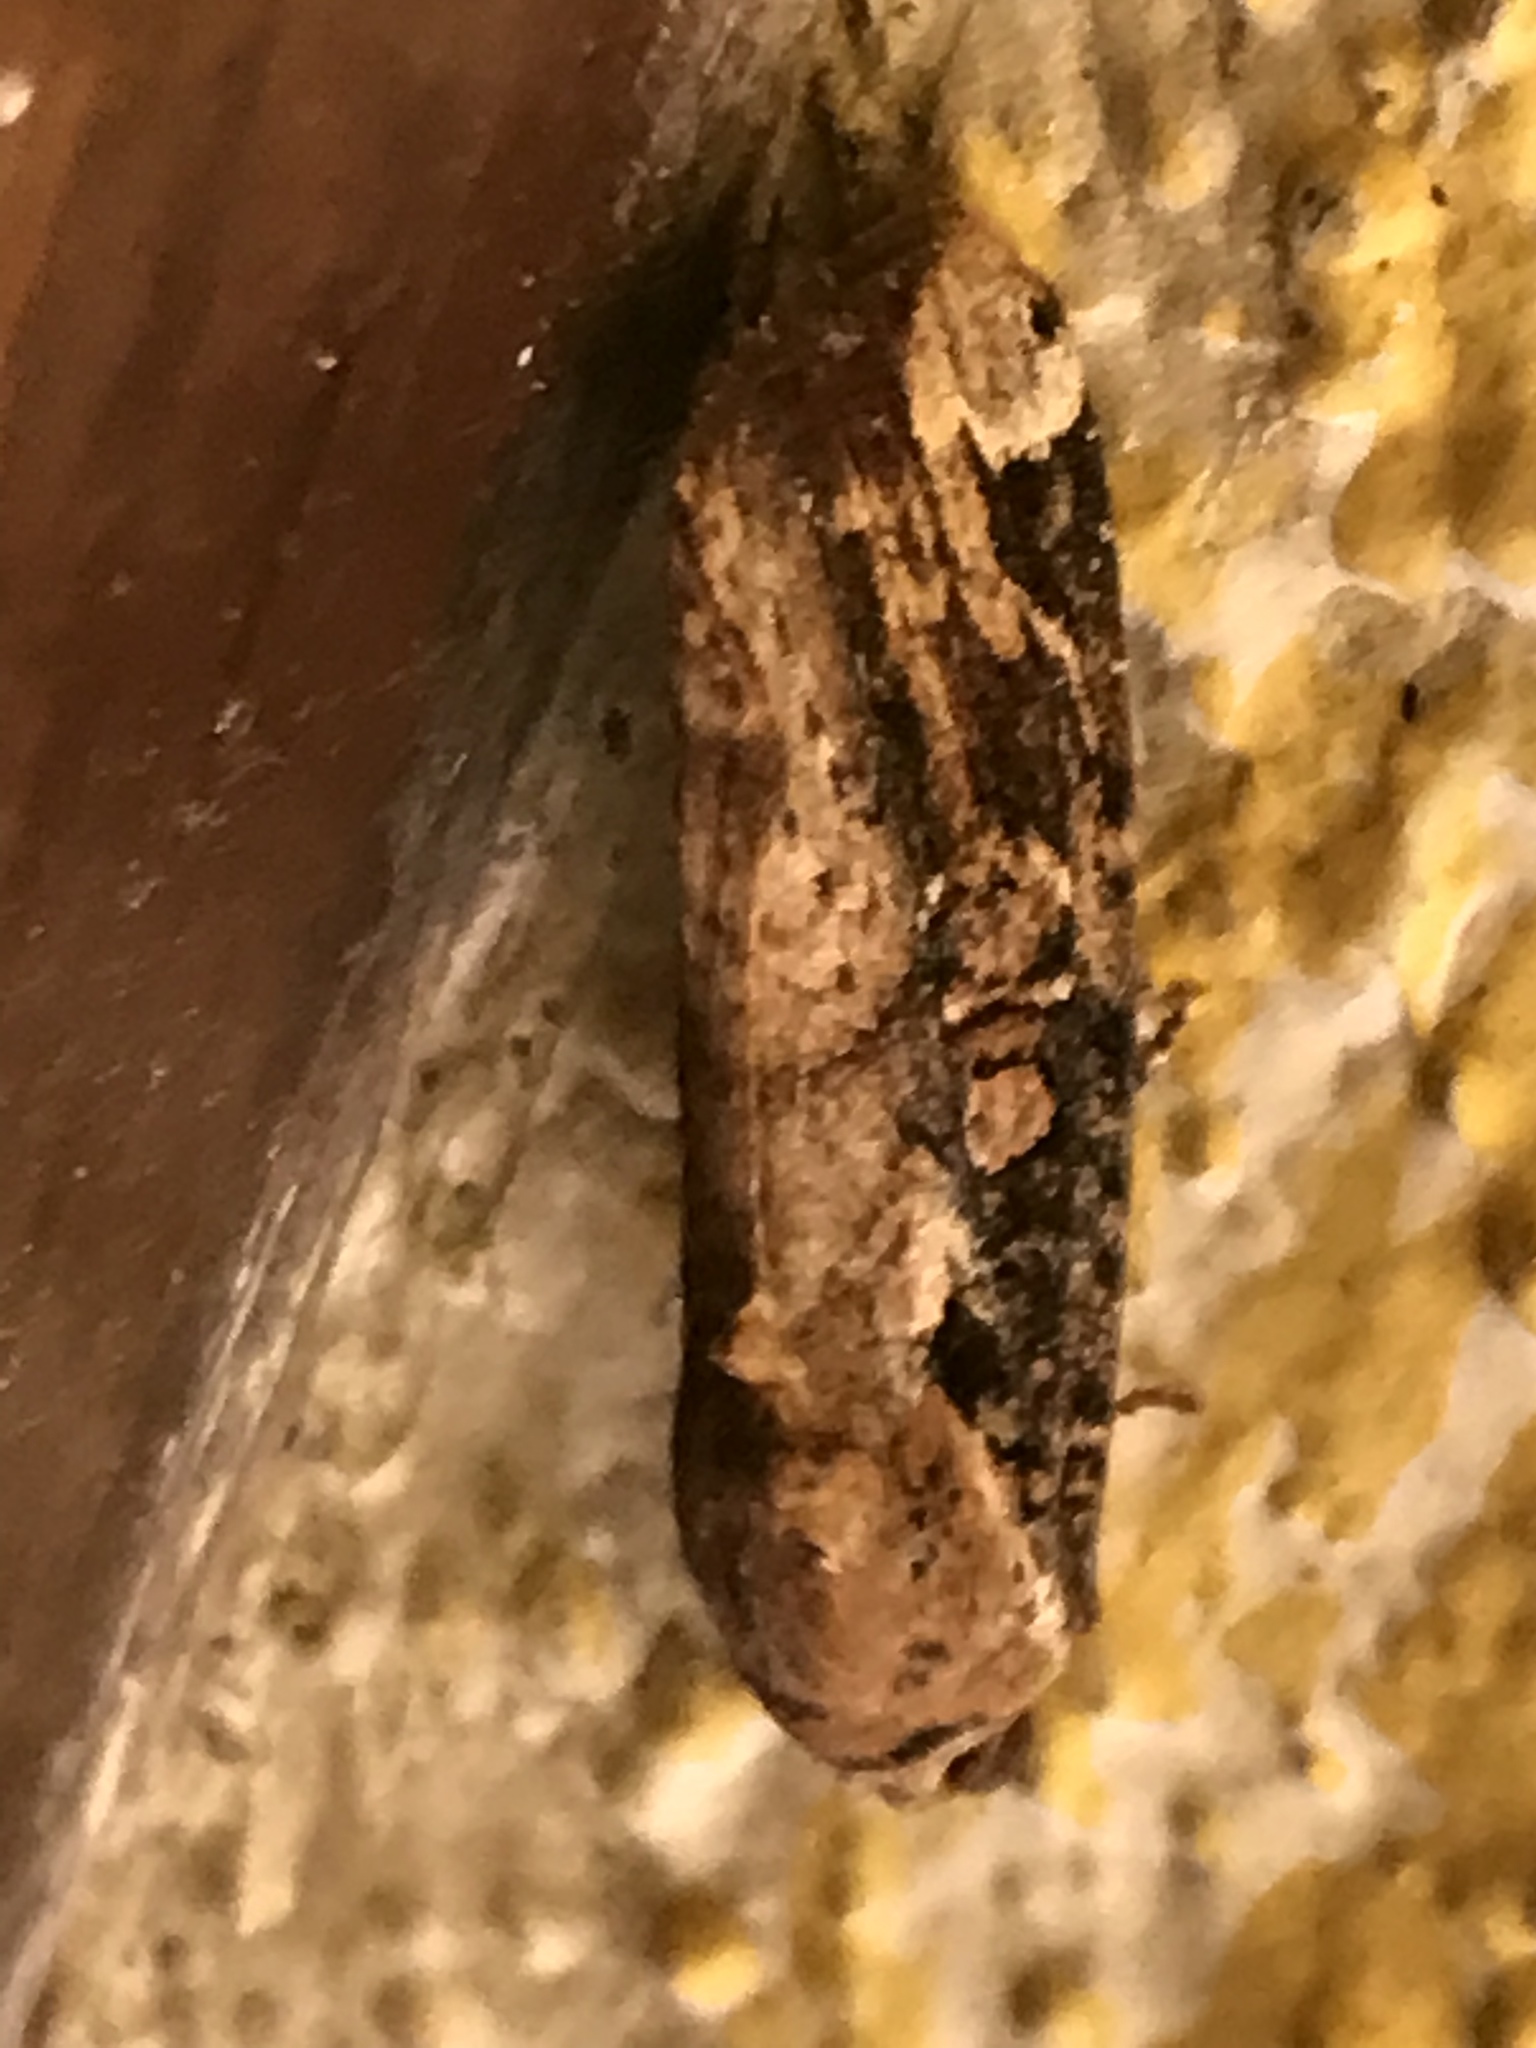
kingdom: Animalia
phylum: Arthropoda
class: Insecta
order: Lepidoptera
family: Noctuidae
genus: Magusa
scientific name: Magusa divaricata
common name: Orb narrow-winged moth
